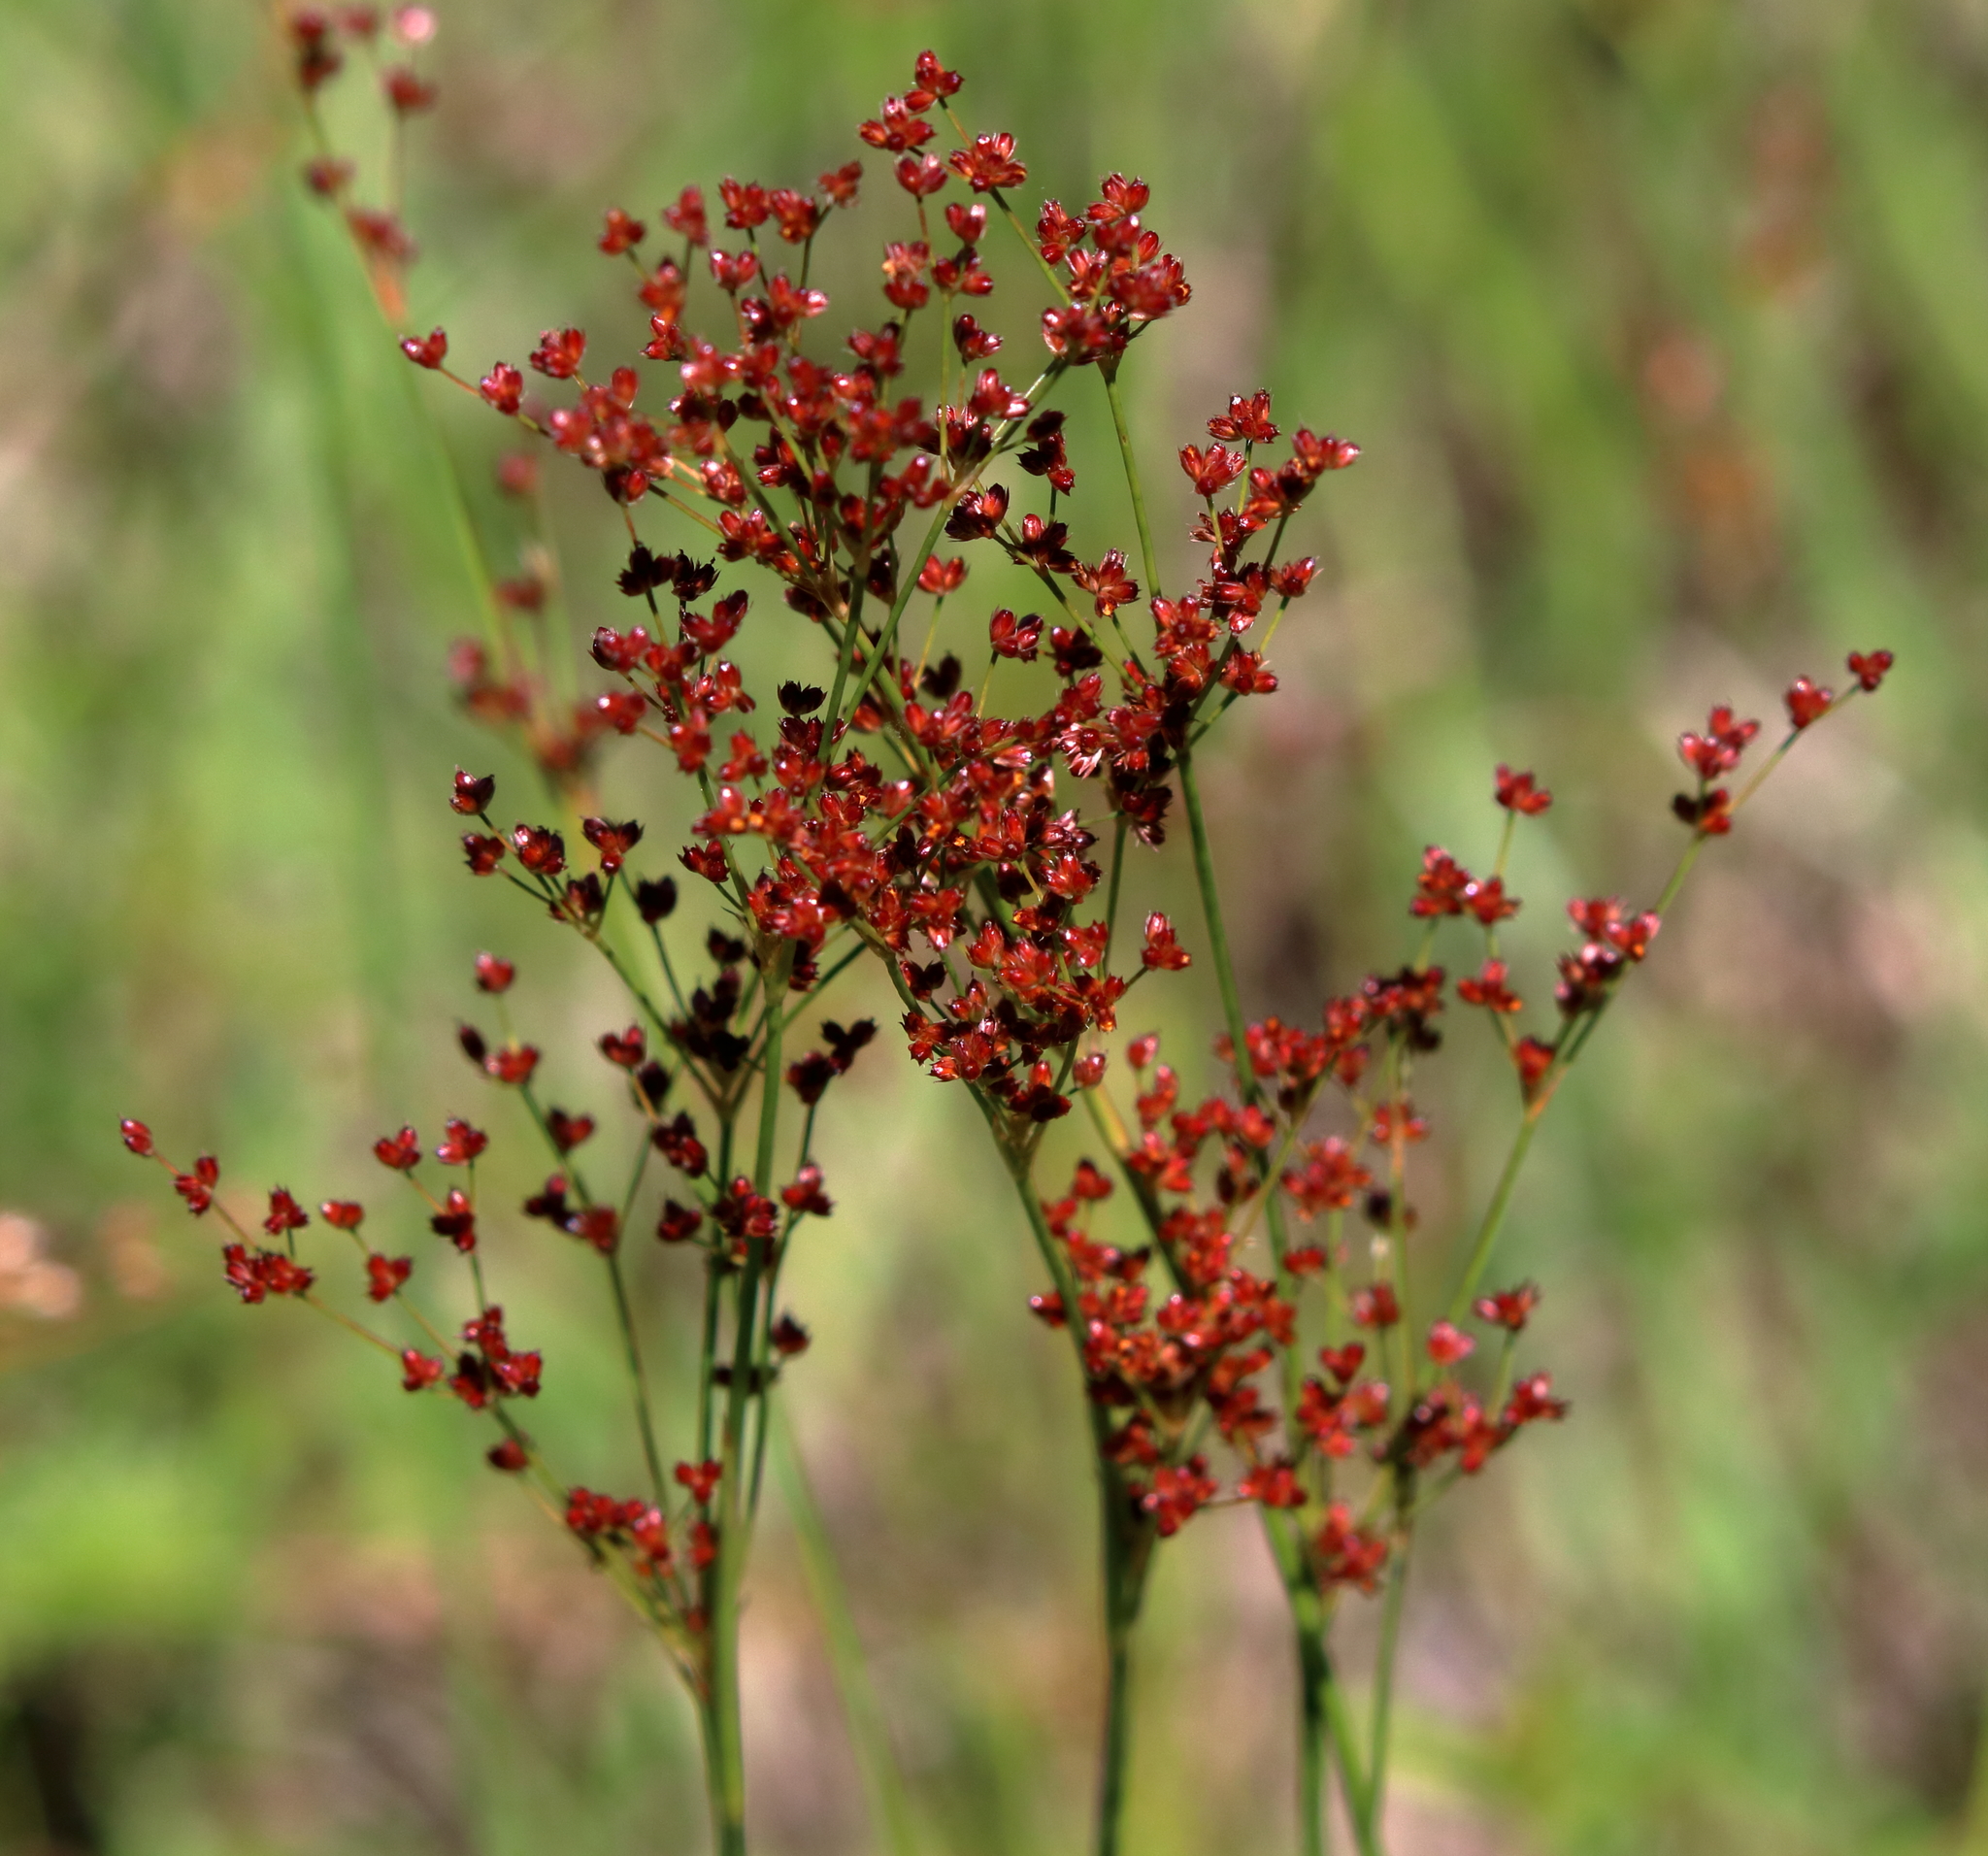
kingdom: Plantae
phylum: Tracheophyta
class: Liliopsida
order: Poales
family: Juncaceae
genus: Juncus
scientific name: Juncus biflorus
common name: Two-flowered rush
